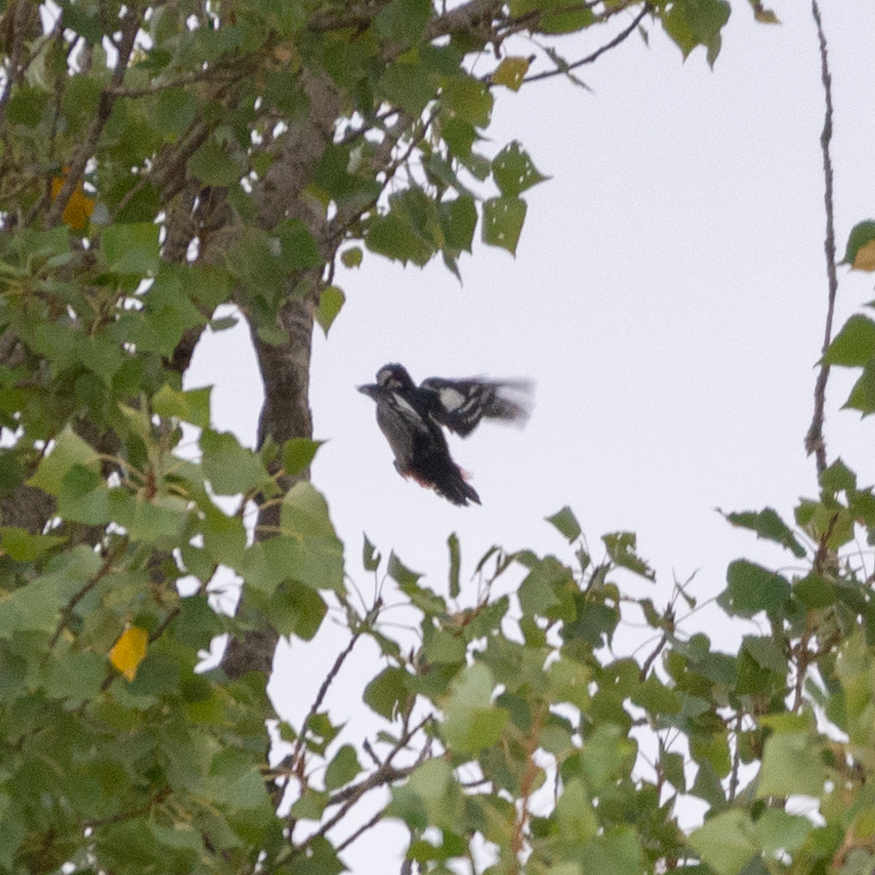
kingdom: Animalia
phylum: Chordata
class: Aves
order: Piciformes
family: Picidae
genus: Dendrocopos
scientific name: Dendrocopos major
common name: Great spotted woodpecker
